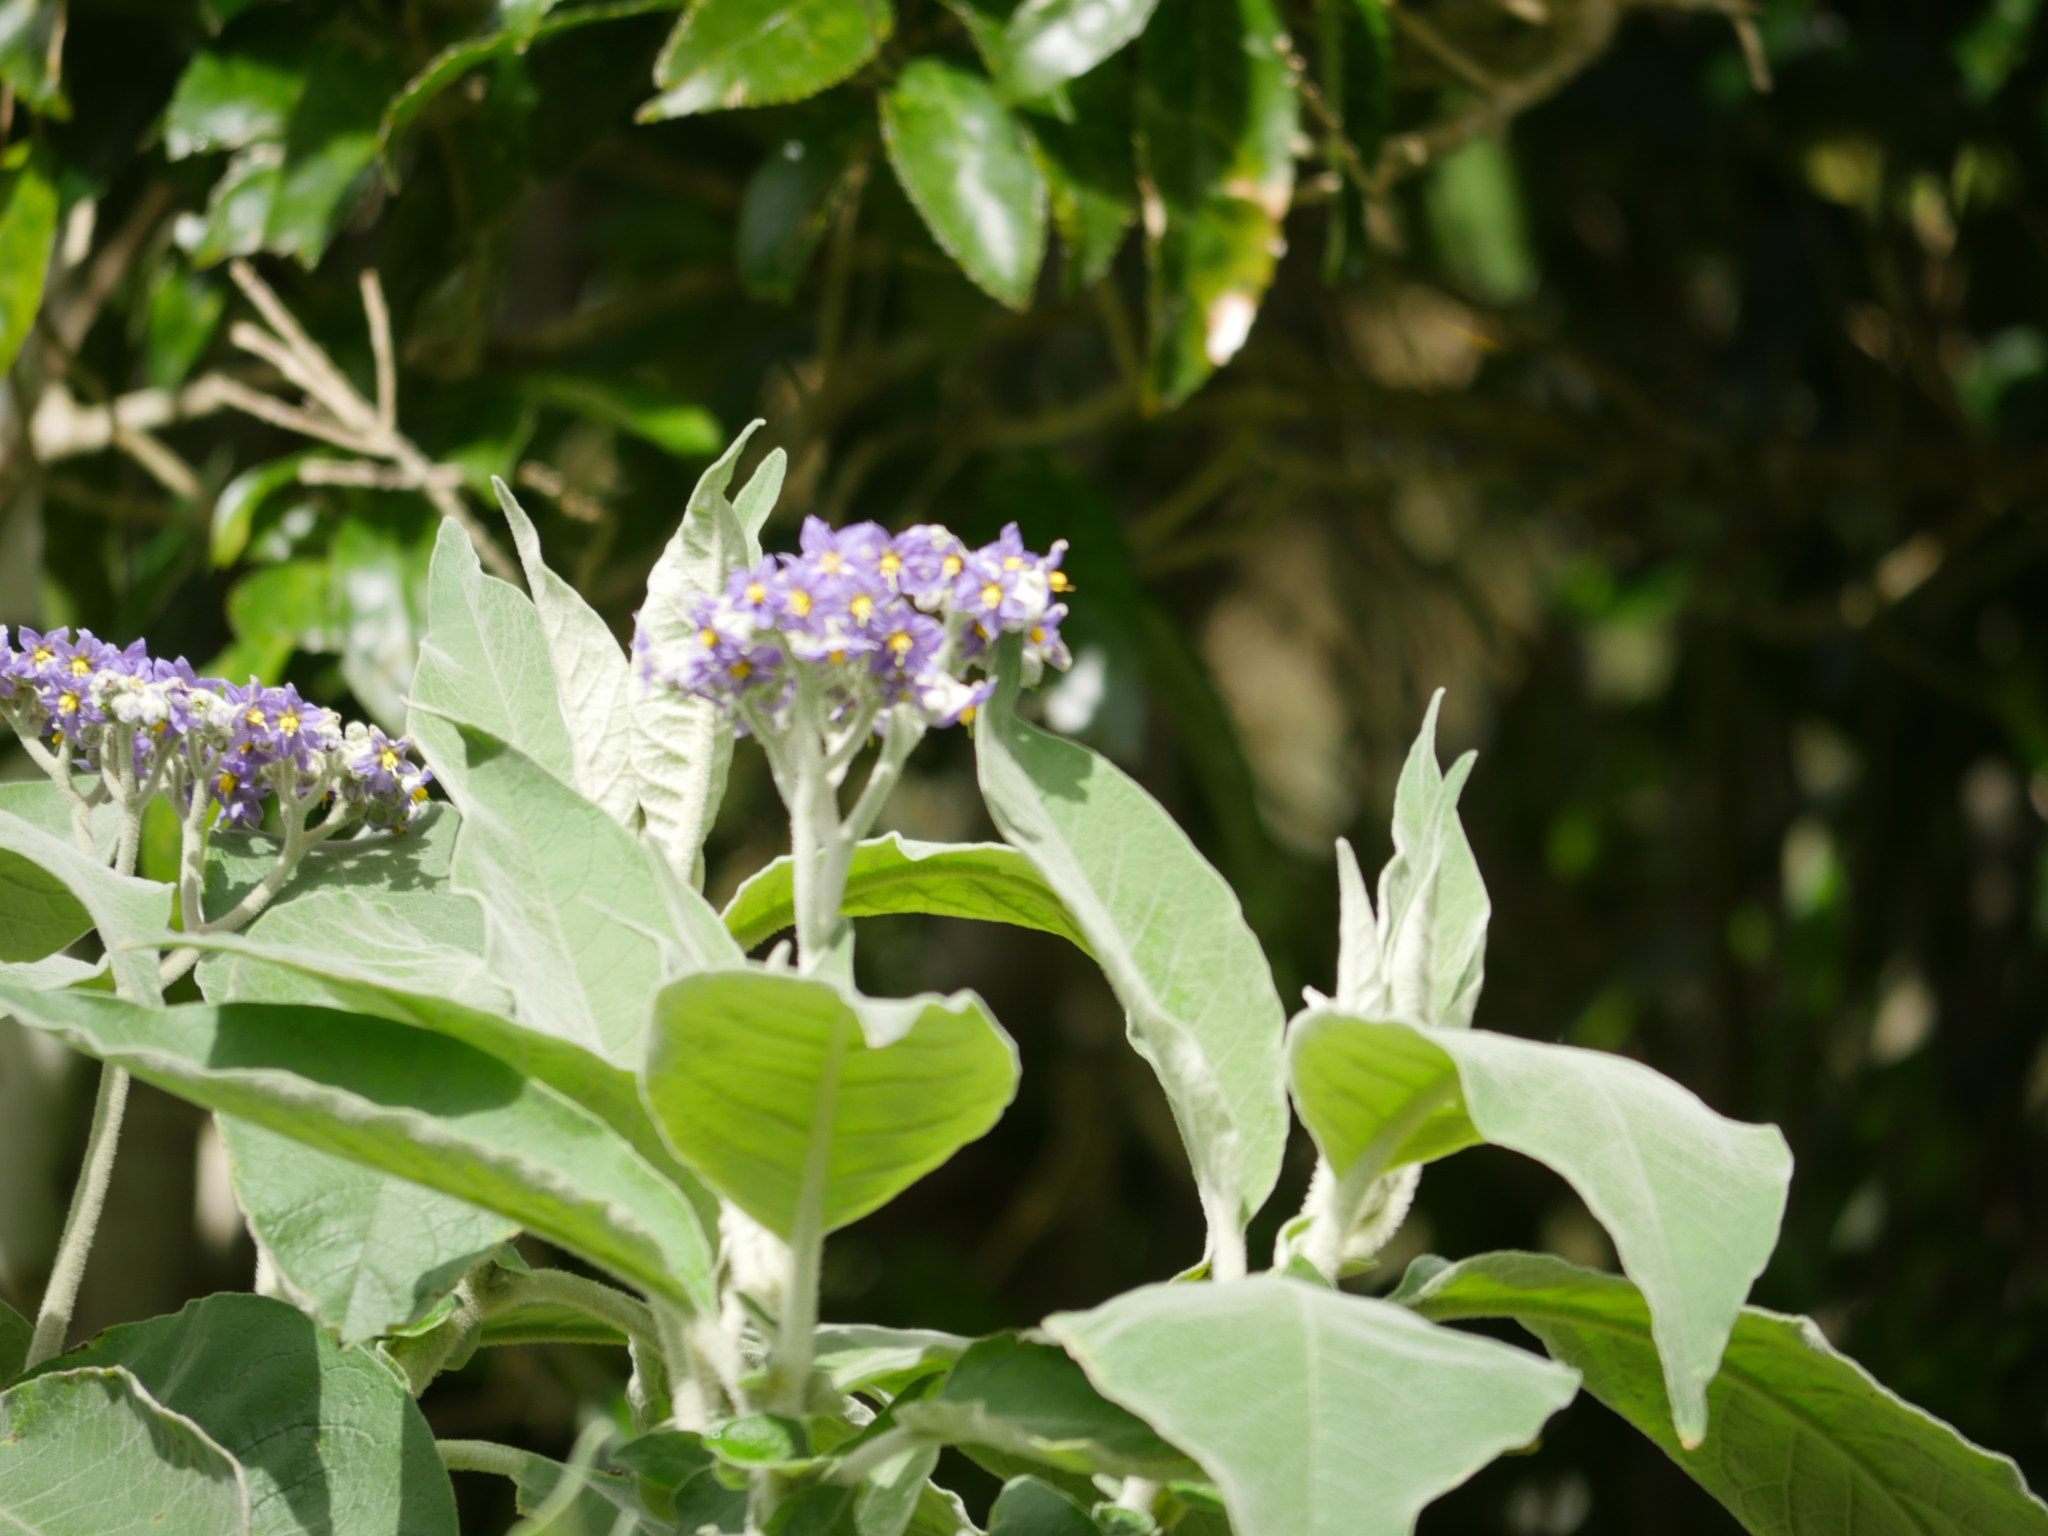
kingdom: Plantae
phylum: Tracheophyta
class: Magnoliopsida
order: Solanales
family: Solanaceae
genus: Solanum
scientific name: Solanum mauritianum
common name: Earleaf nightshade
